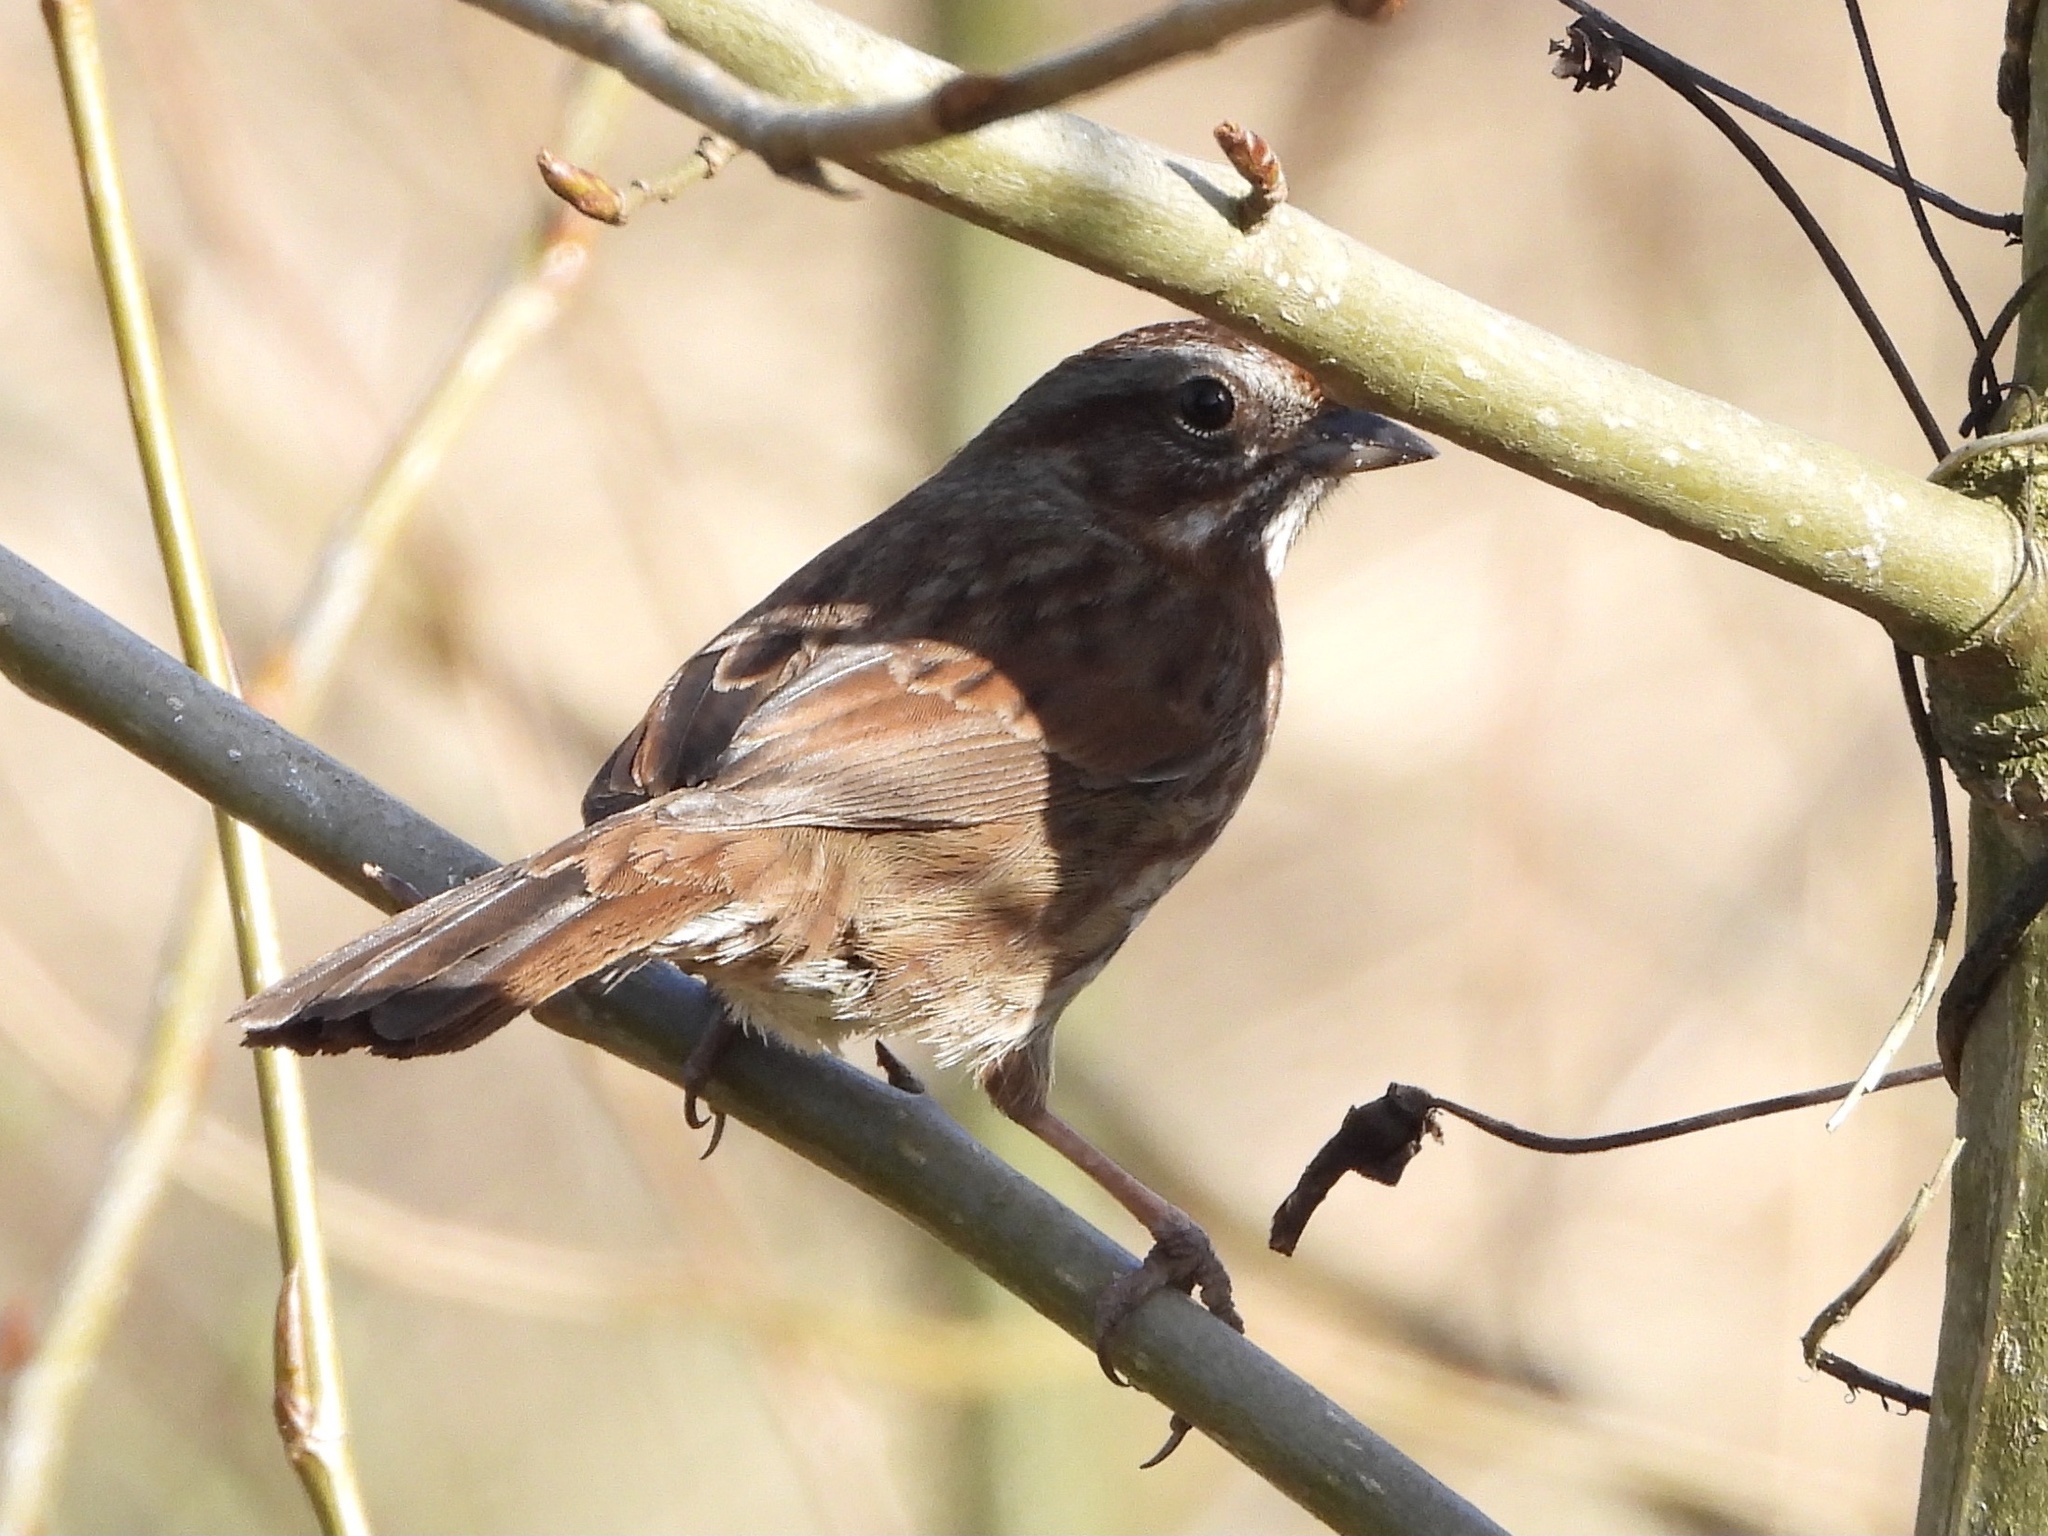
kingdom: Animalia
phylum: Chordata
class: Aves
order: Passeriformes
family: Passerellidae
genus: Melospiza
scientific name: Melospiza melodia
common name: Song sparrow
